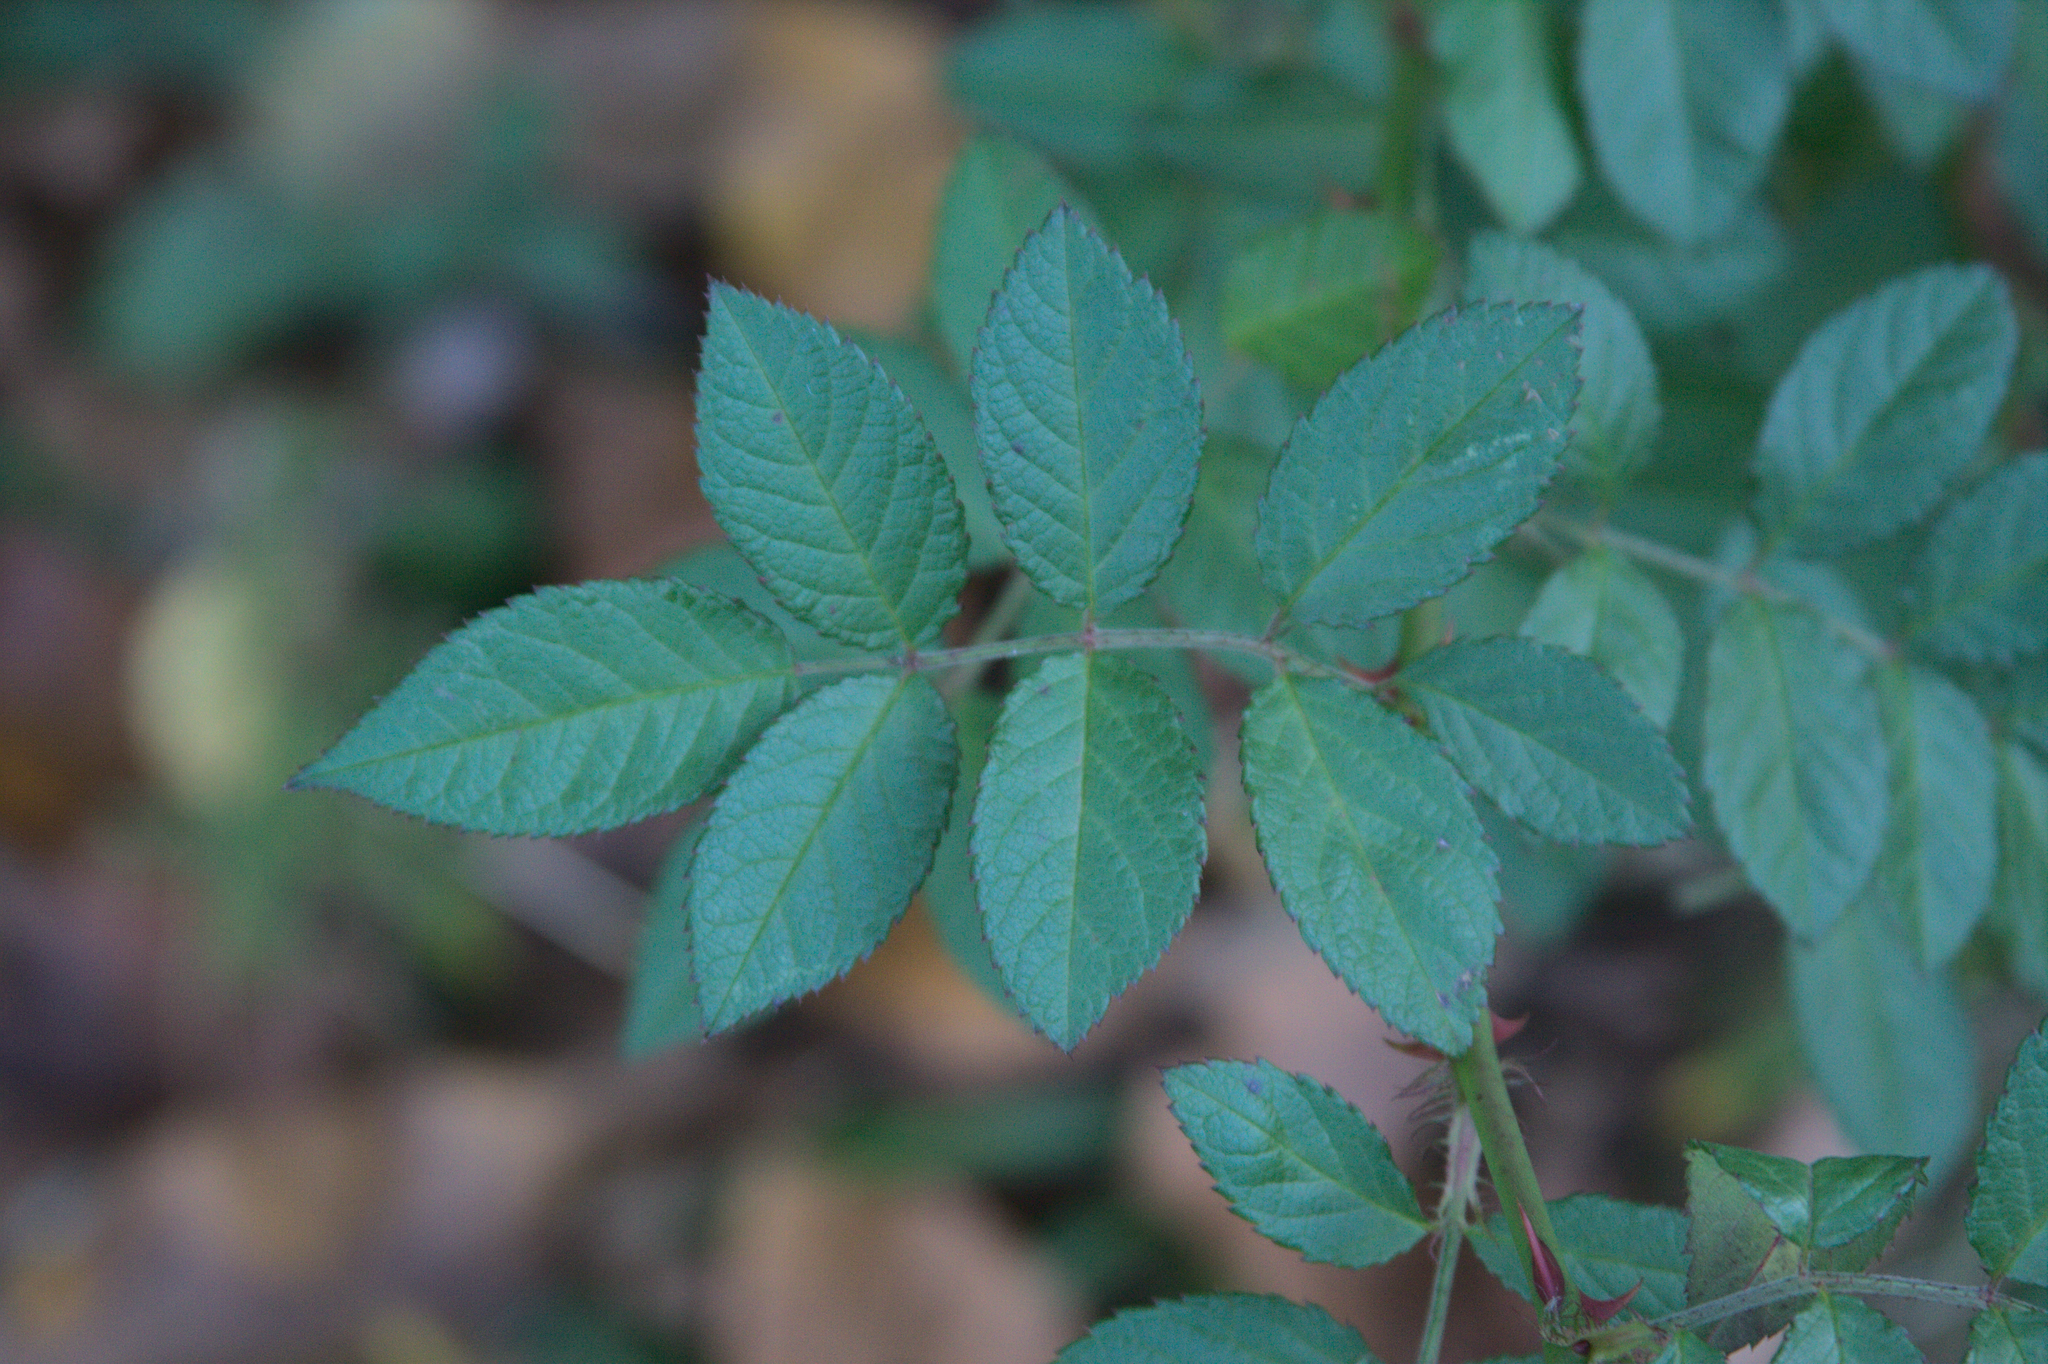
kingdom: Plantae
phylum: Tracheophyta
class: Magnoliopsida
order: Rosales
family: Rosaceae
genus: Rosa
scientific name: Rosa multiflora
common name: Multiflora rose
